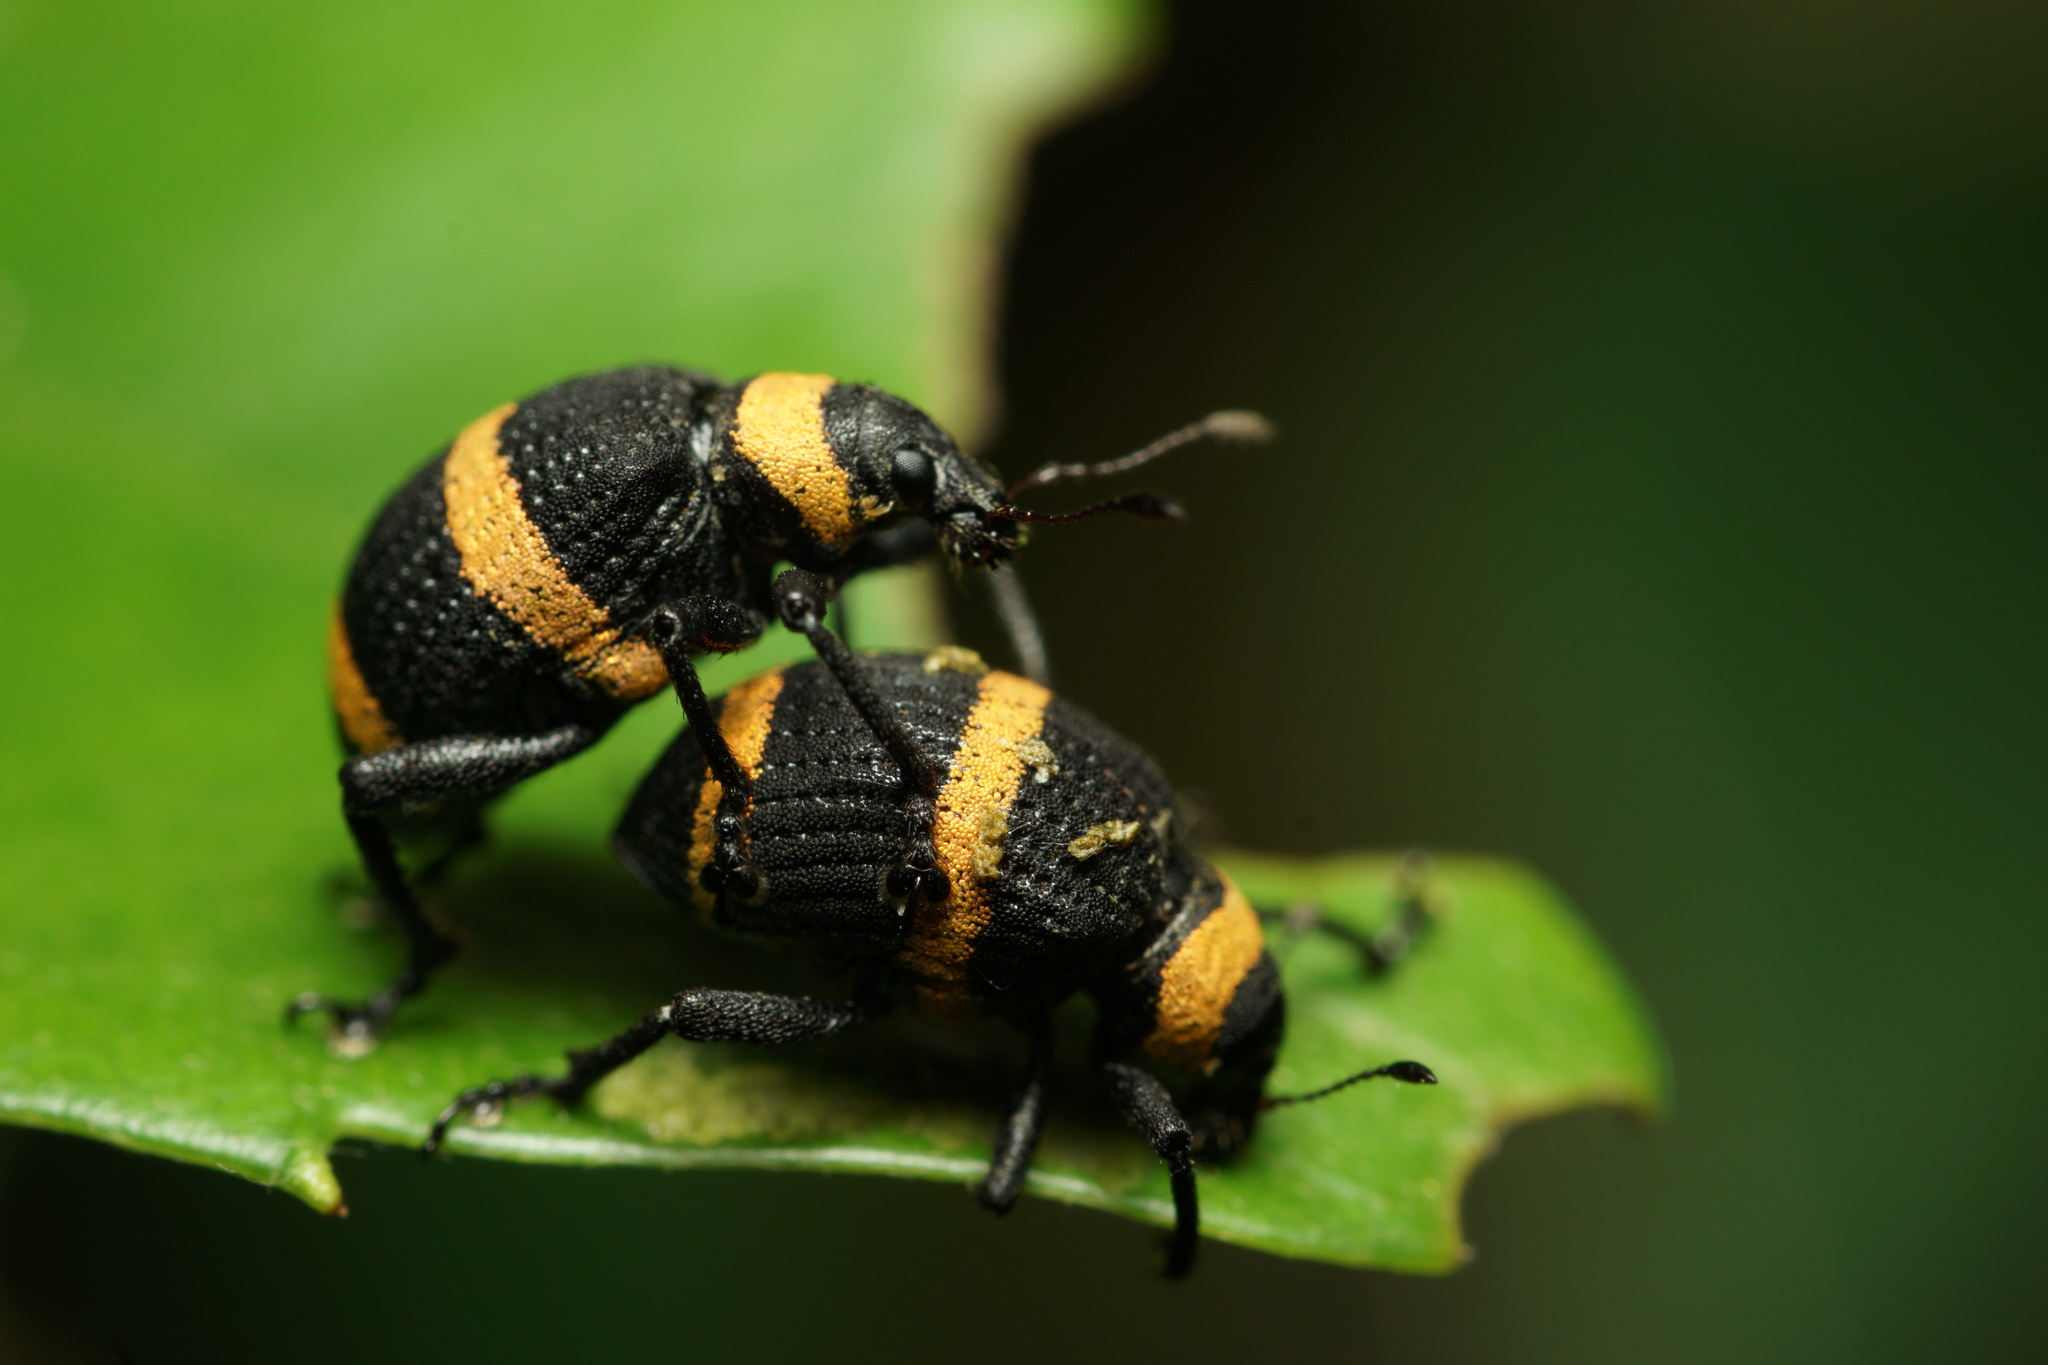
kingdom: Animalia
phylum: Arthropoda
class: Insecta
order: Coleoptera
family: Curculionidae
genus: Entyus
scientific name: Entyus auricinctus
